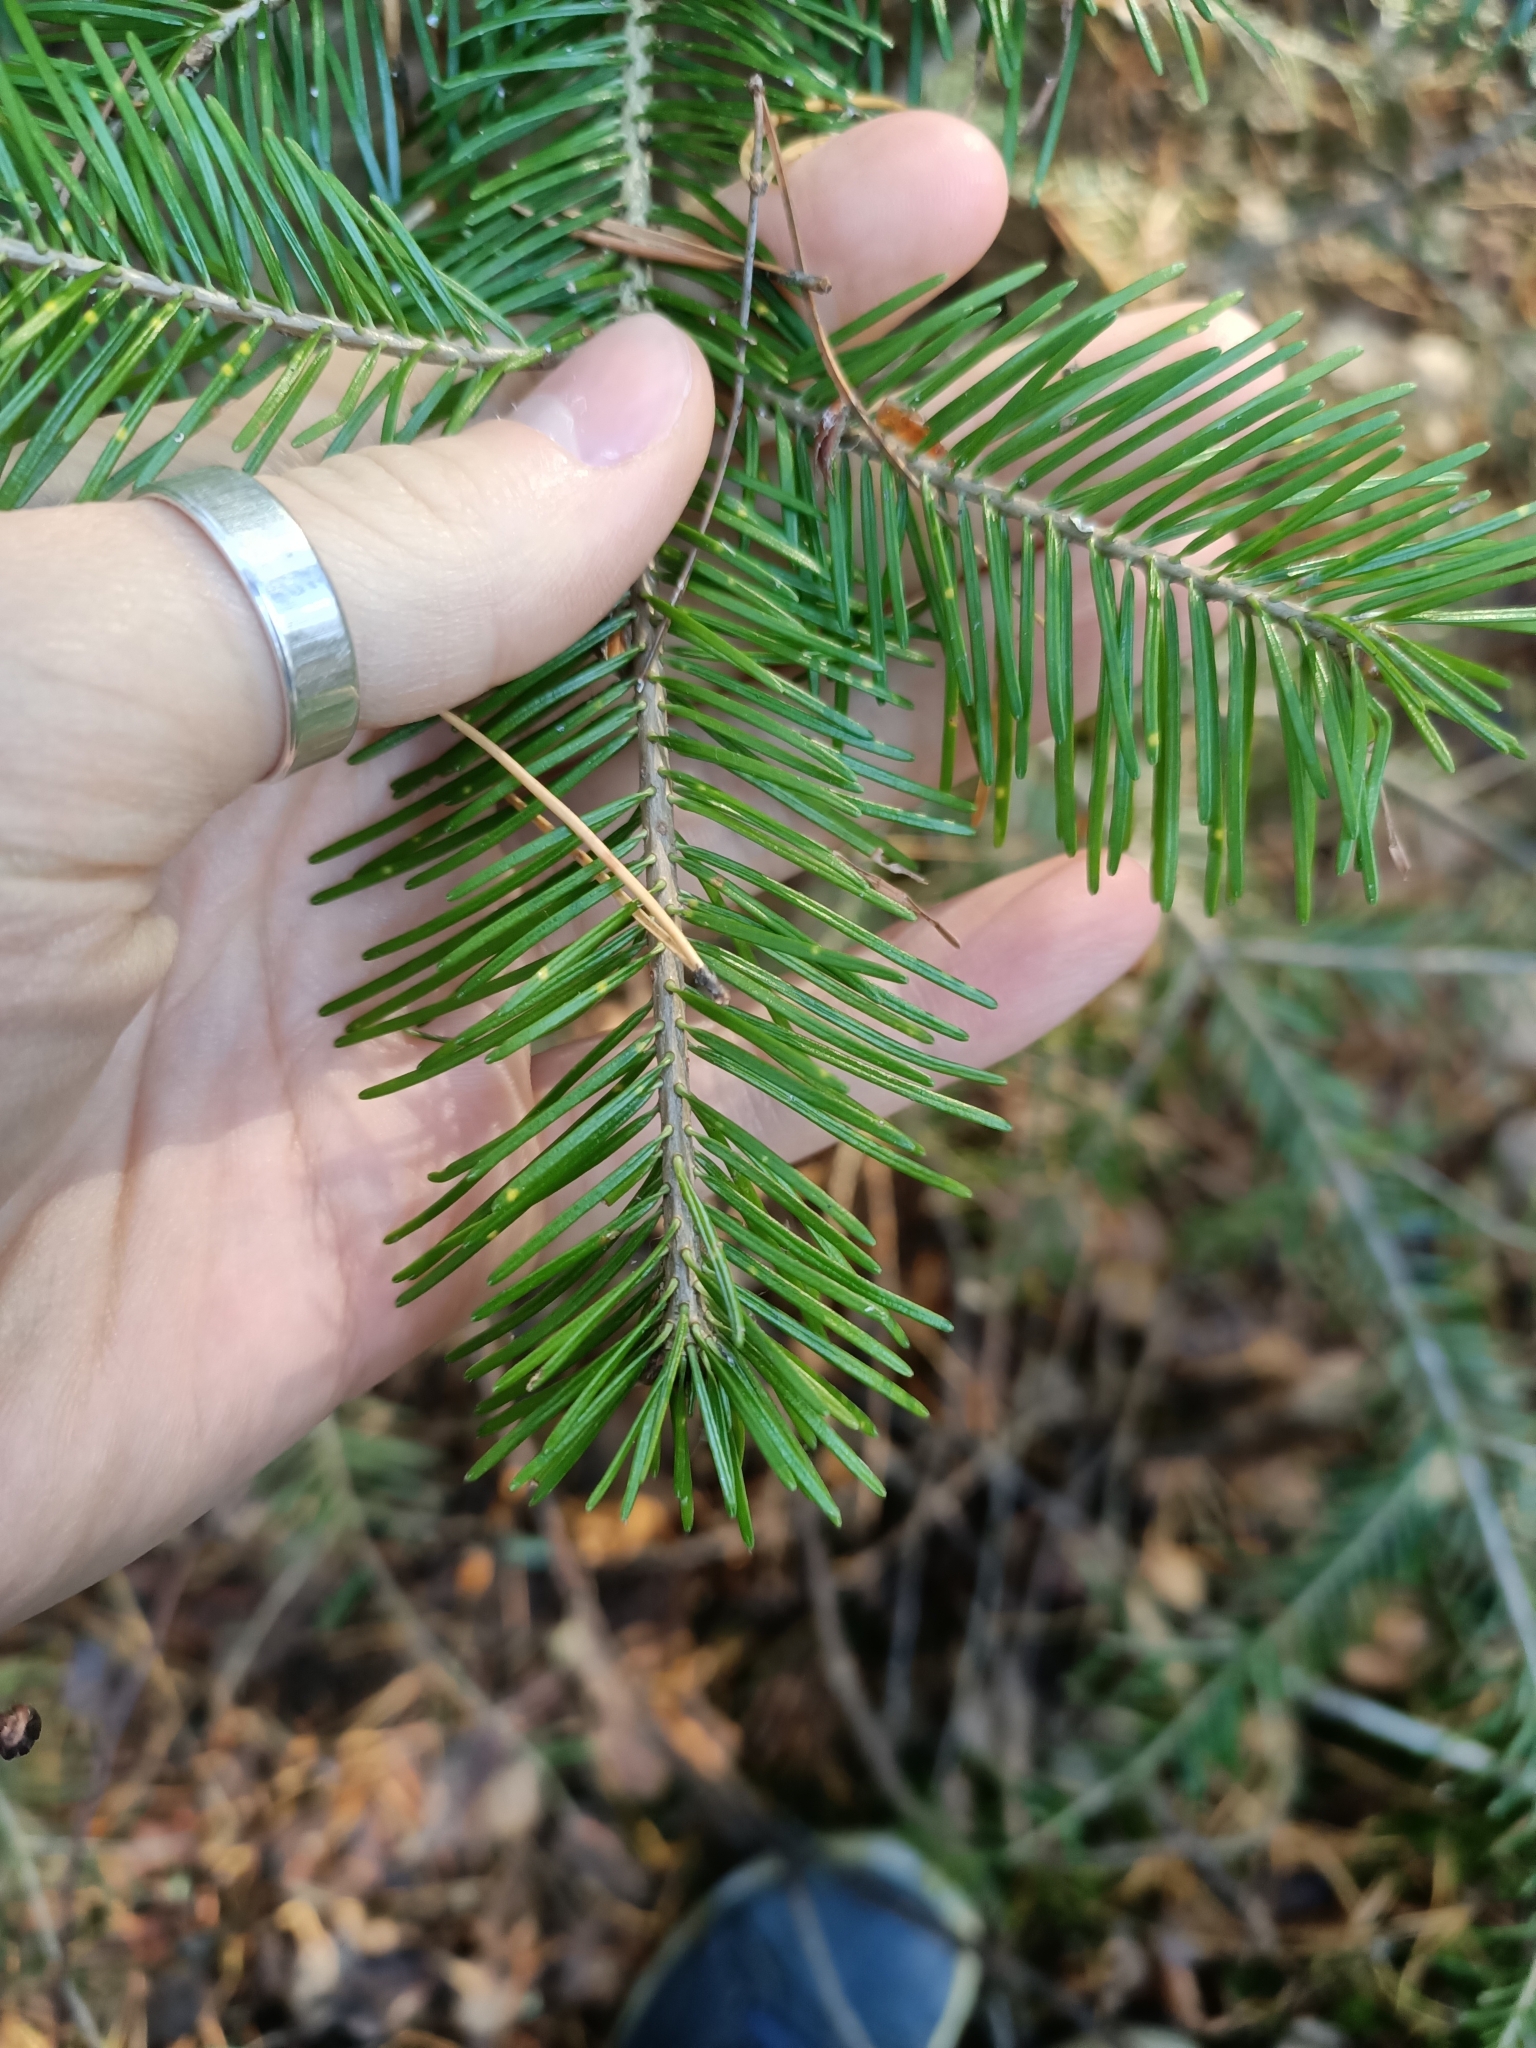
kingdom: Plantae
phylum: Tracheophyta
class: Pinopsida
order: Pinales
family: Pinaceae
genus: Abies
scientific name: Abies sibirica
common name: Siberian fir
